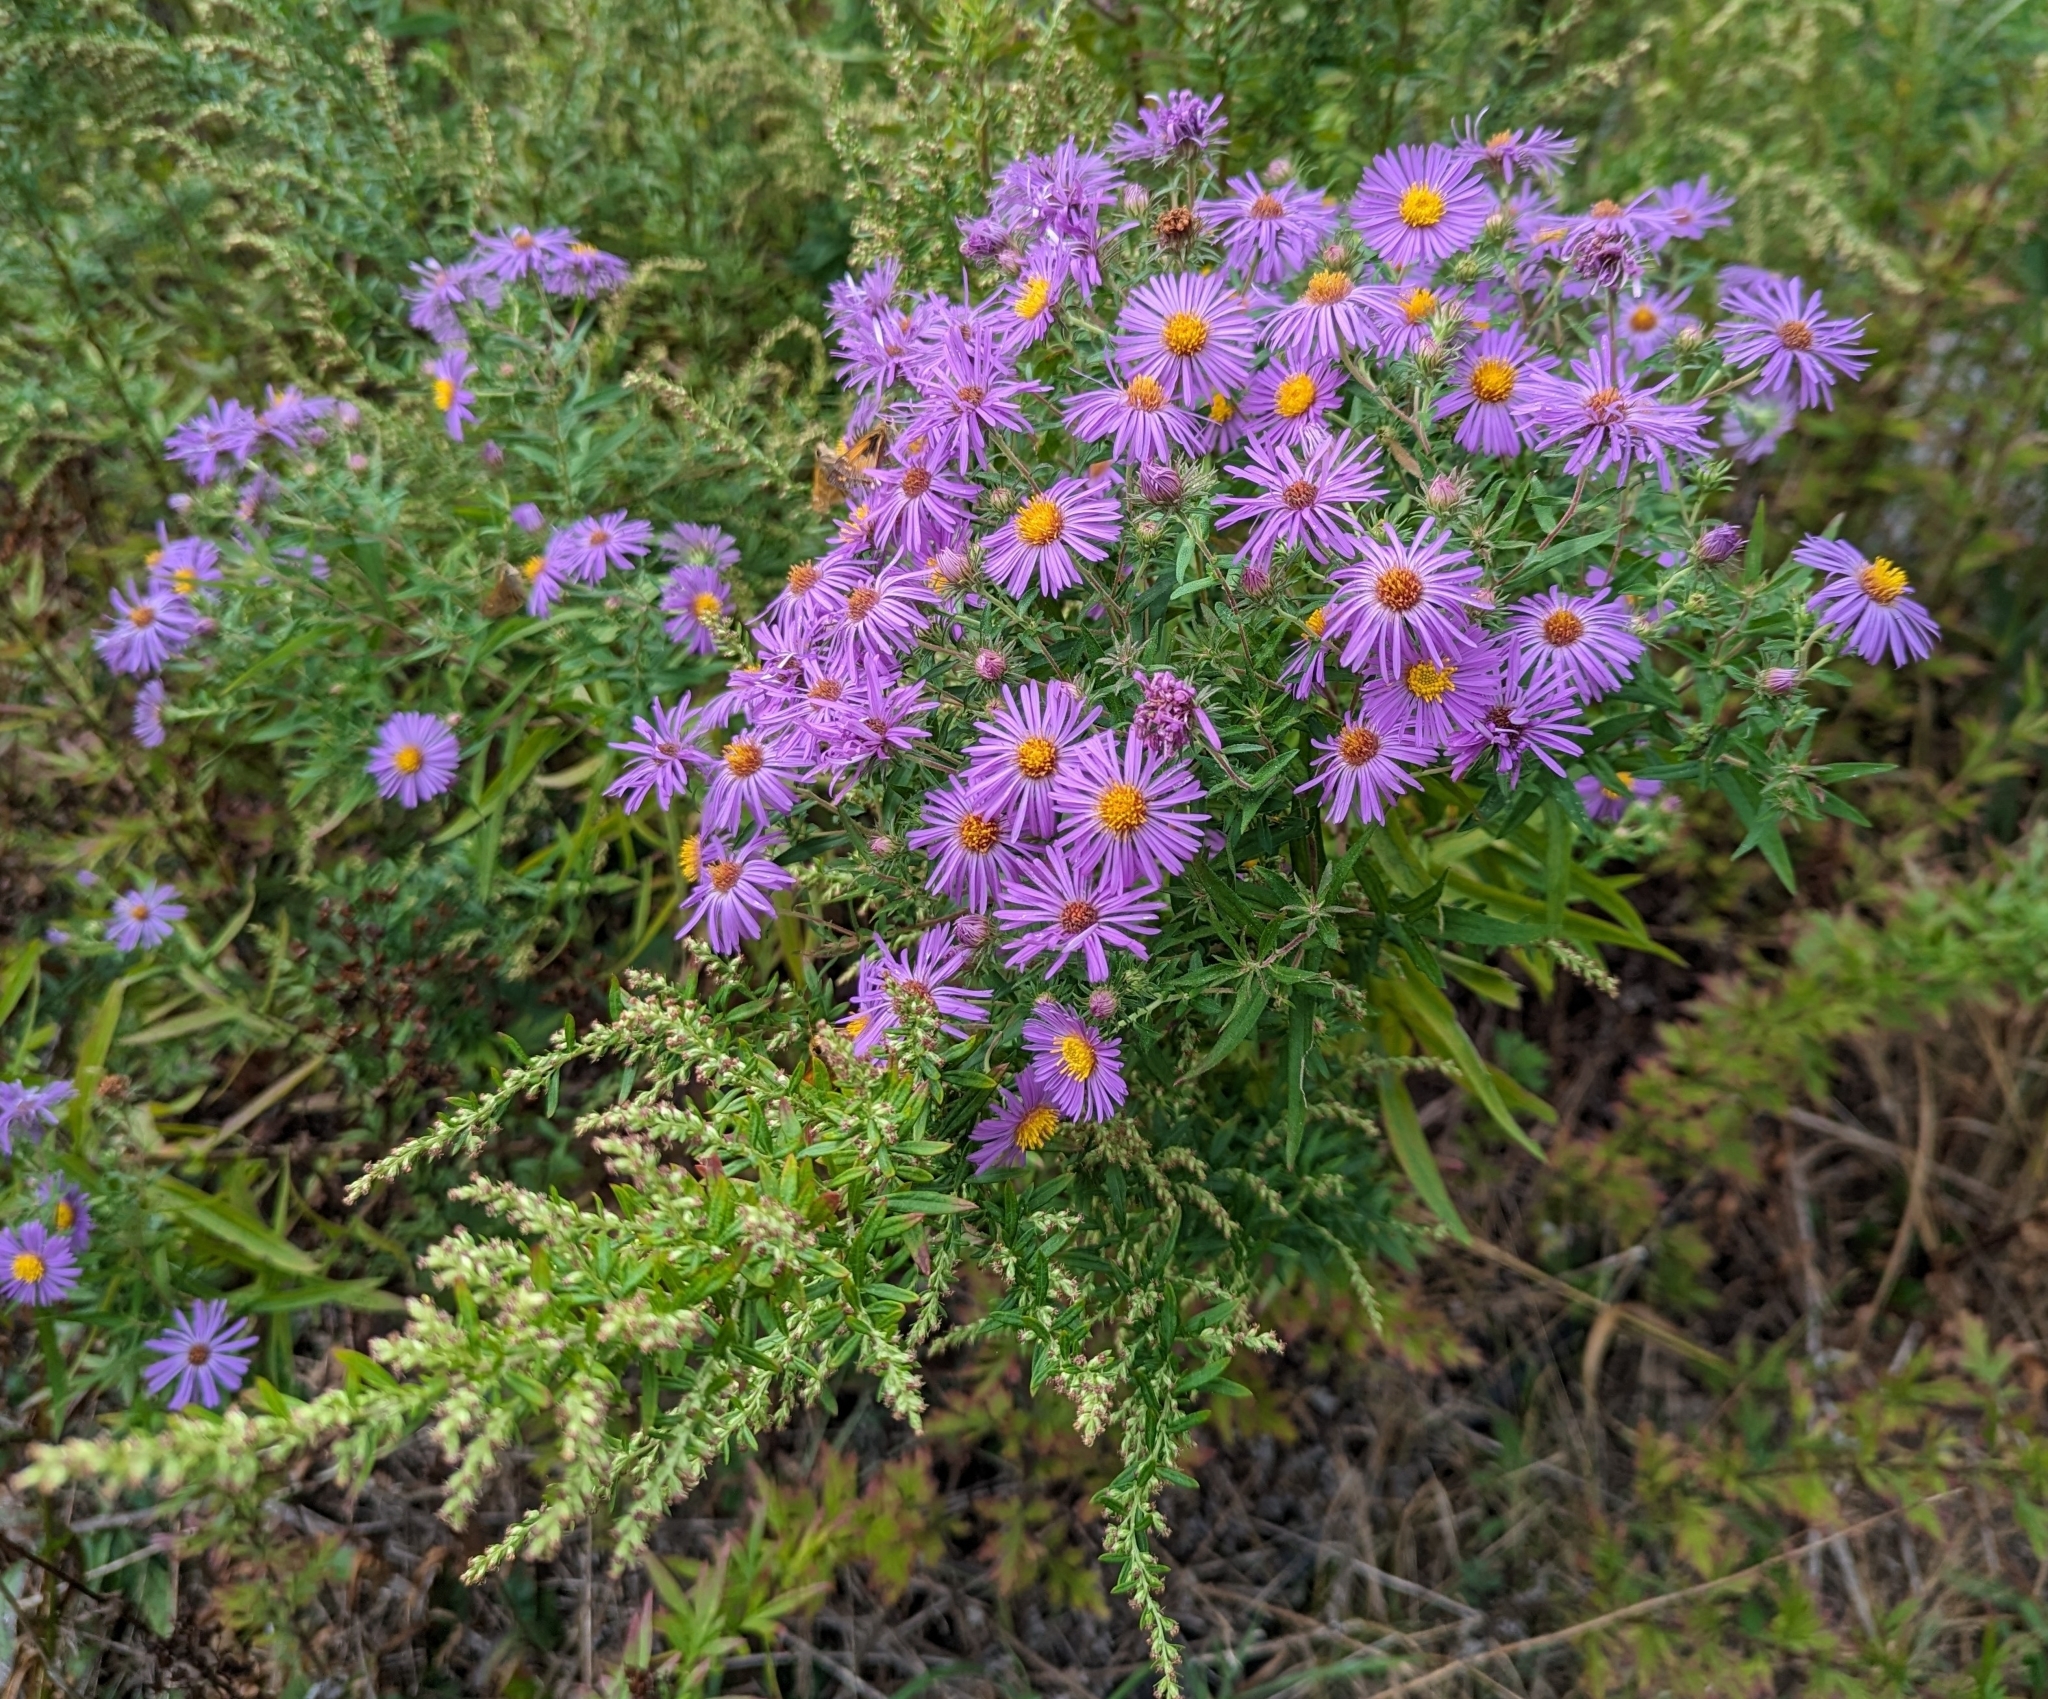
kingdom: Plantae
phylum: Tracheophyta
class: Magnoliopsida
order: Asterales
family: Asteraceae
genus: Symphyotrichum
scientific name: Symphyotrichum novae-angliae
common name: Michaelmas daisy
